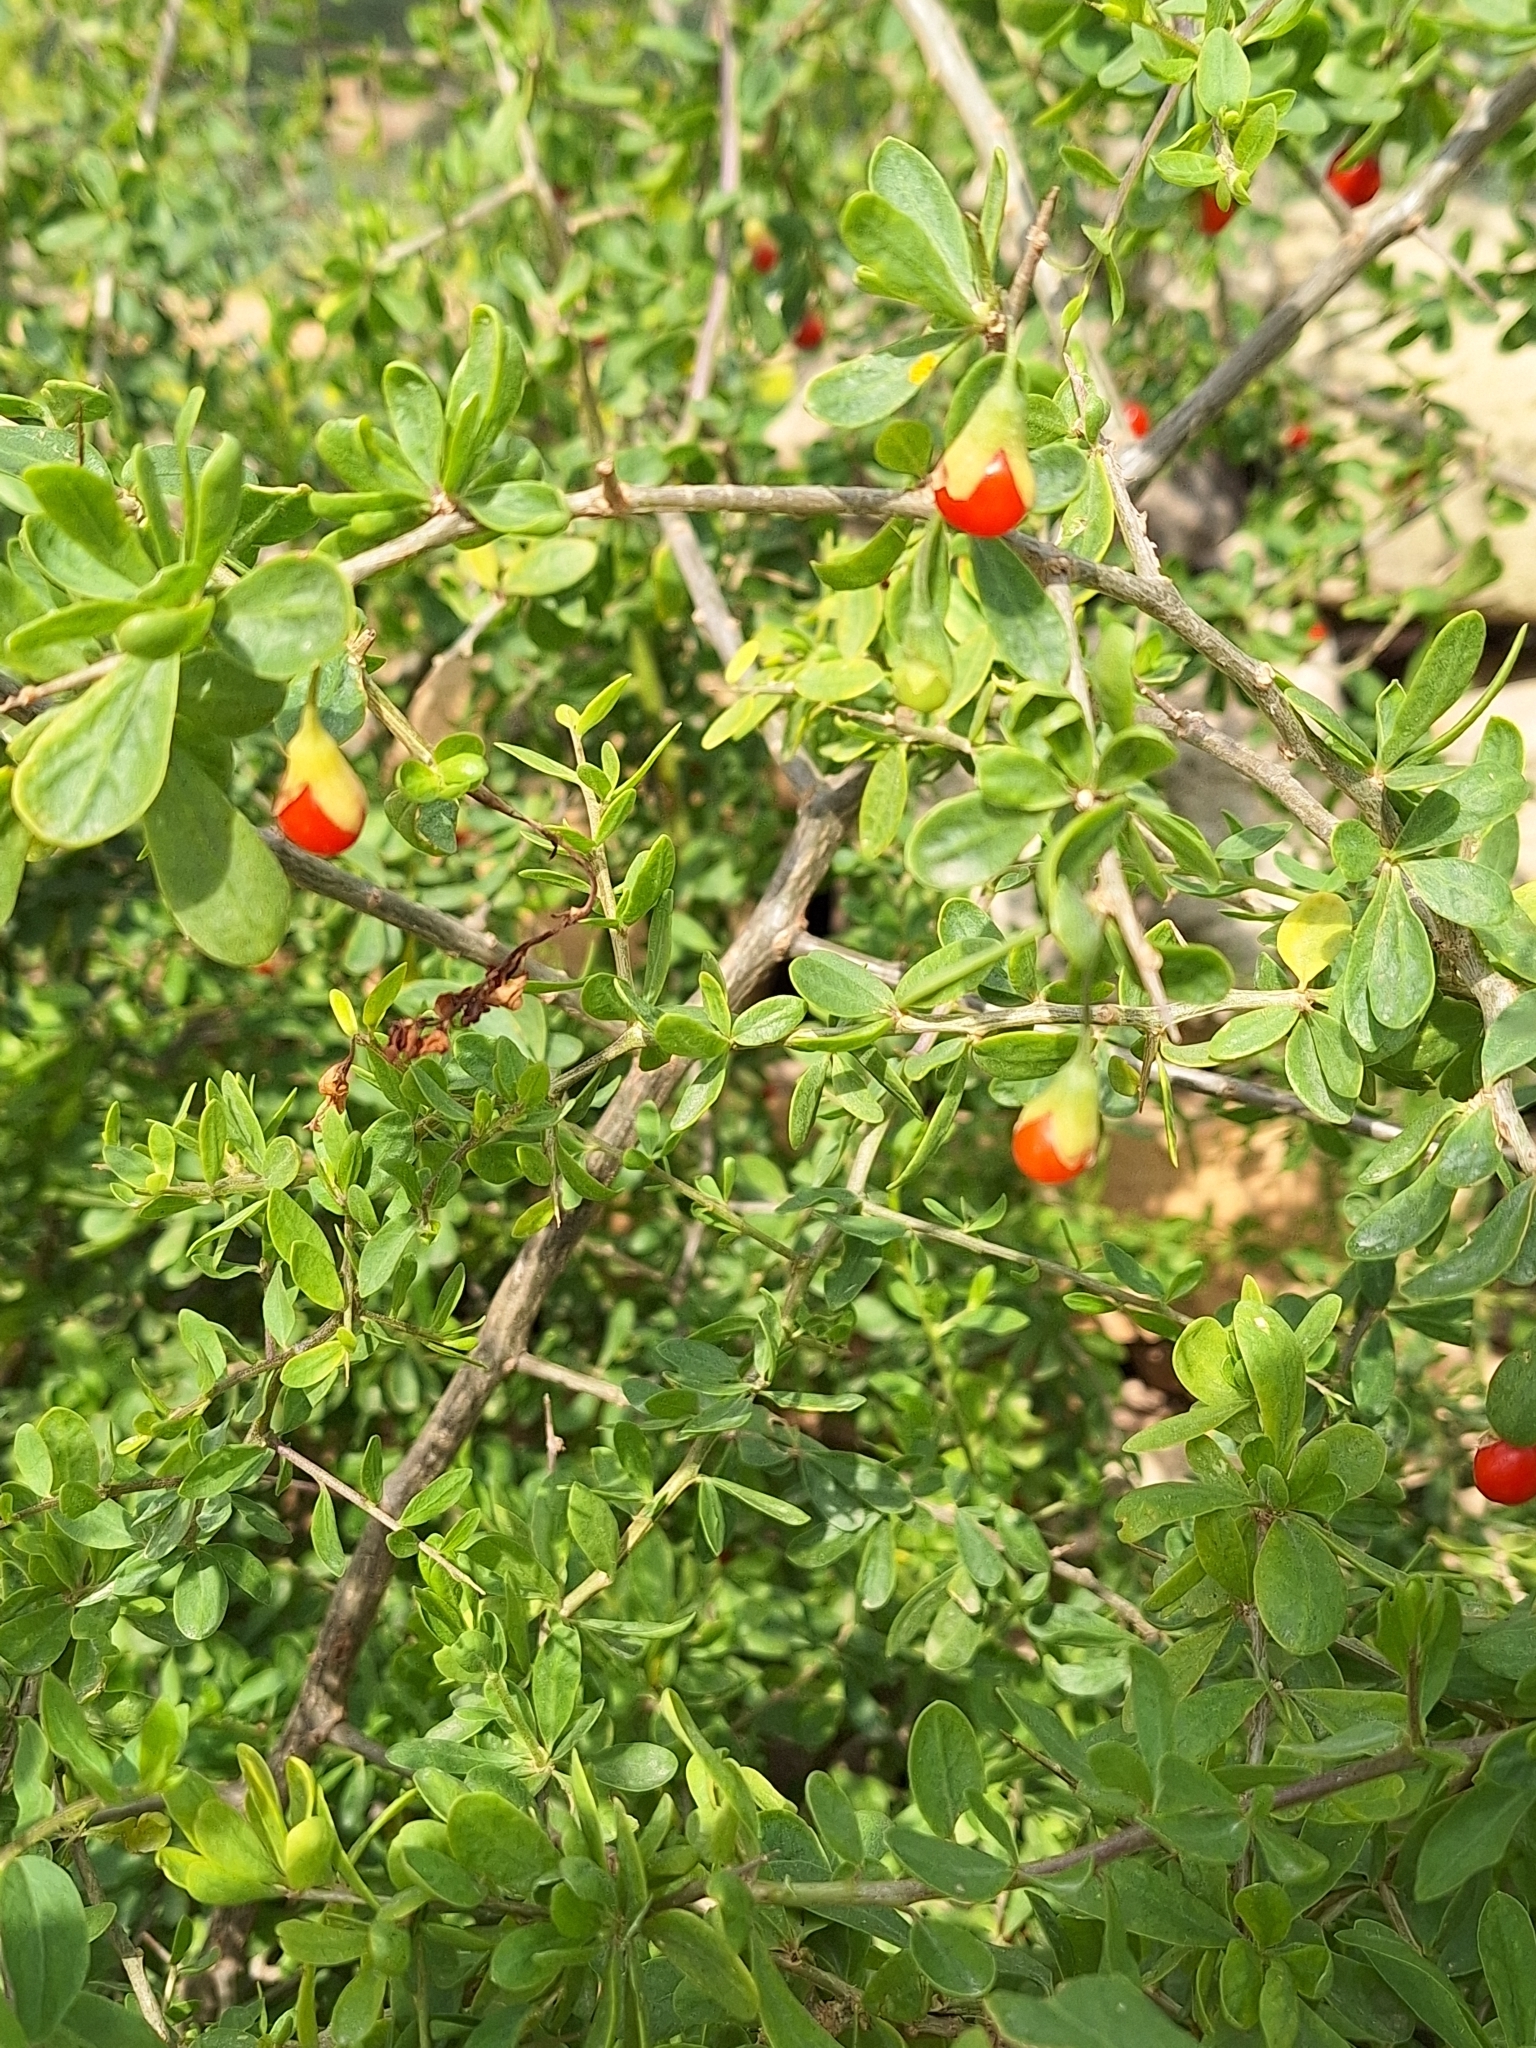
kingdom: Plantae
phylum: Tracheophyta
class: Magnoliopsida
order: Solanales
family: Solanaceae
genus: Lycium
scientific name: Lycium ferocissimum
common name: African boxthorn
